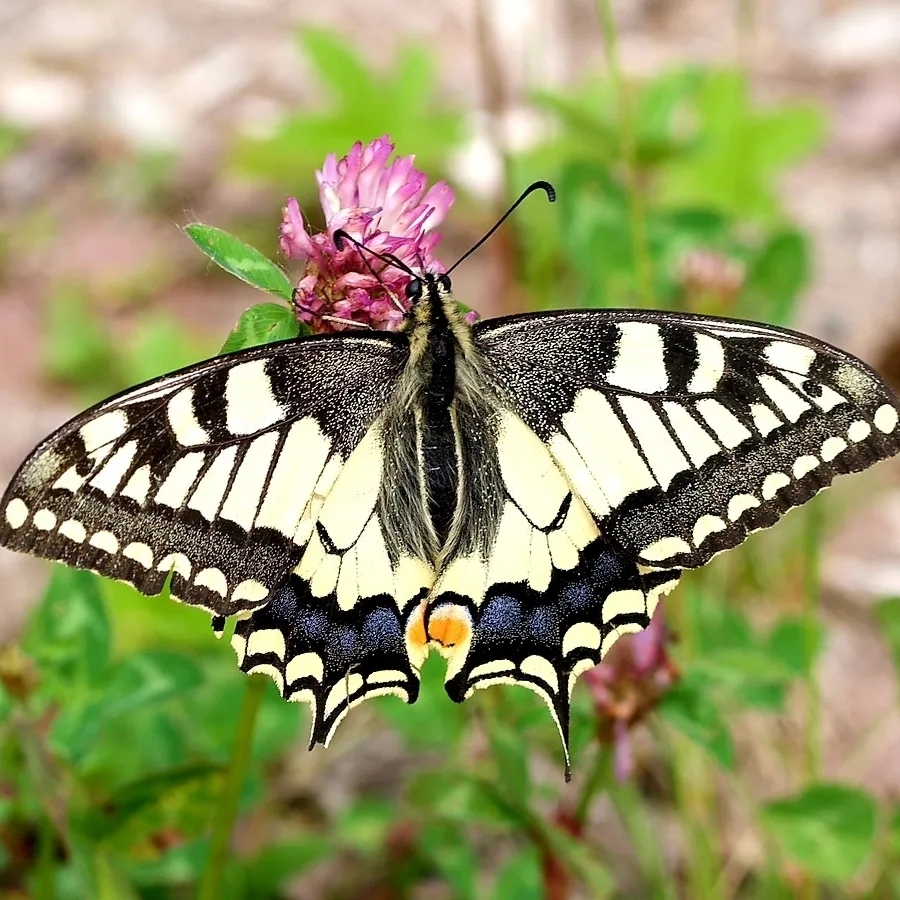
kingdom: Animalia
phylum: Arthropoda
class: Insecta
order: Lepidoptera
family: Papilionidae
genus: Papilio
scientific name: Papilio machaon
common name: Swallowtail
